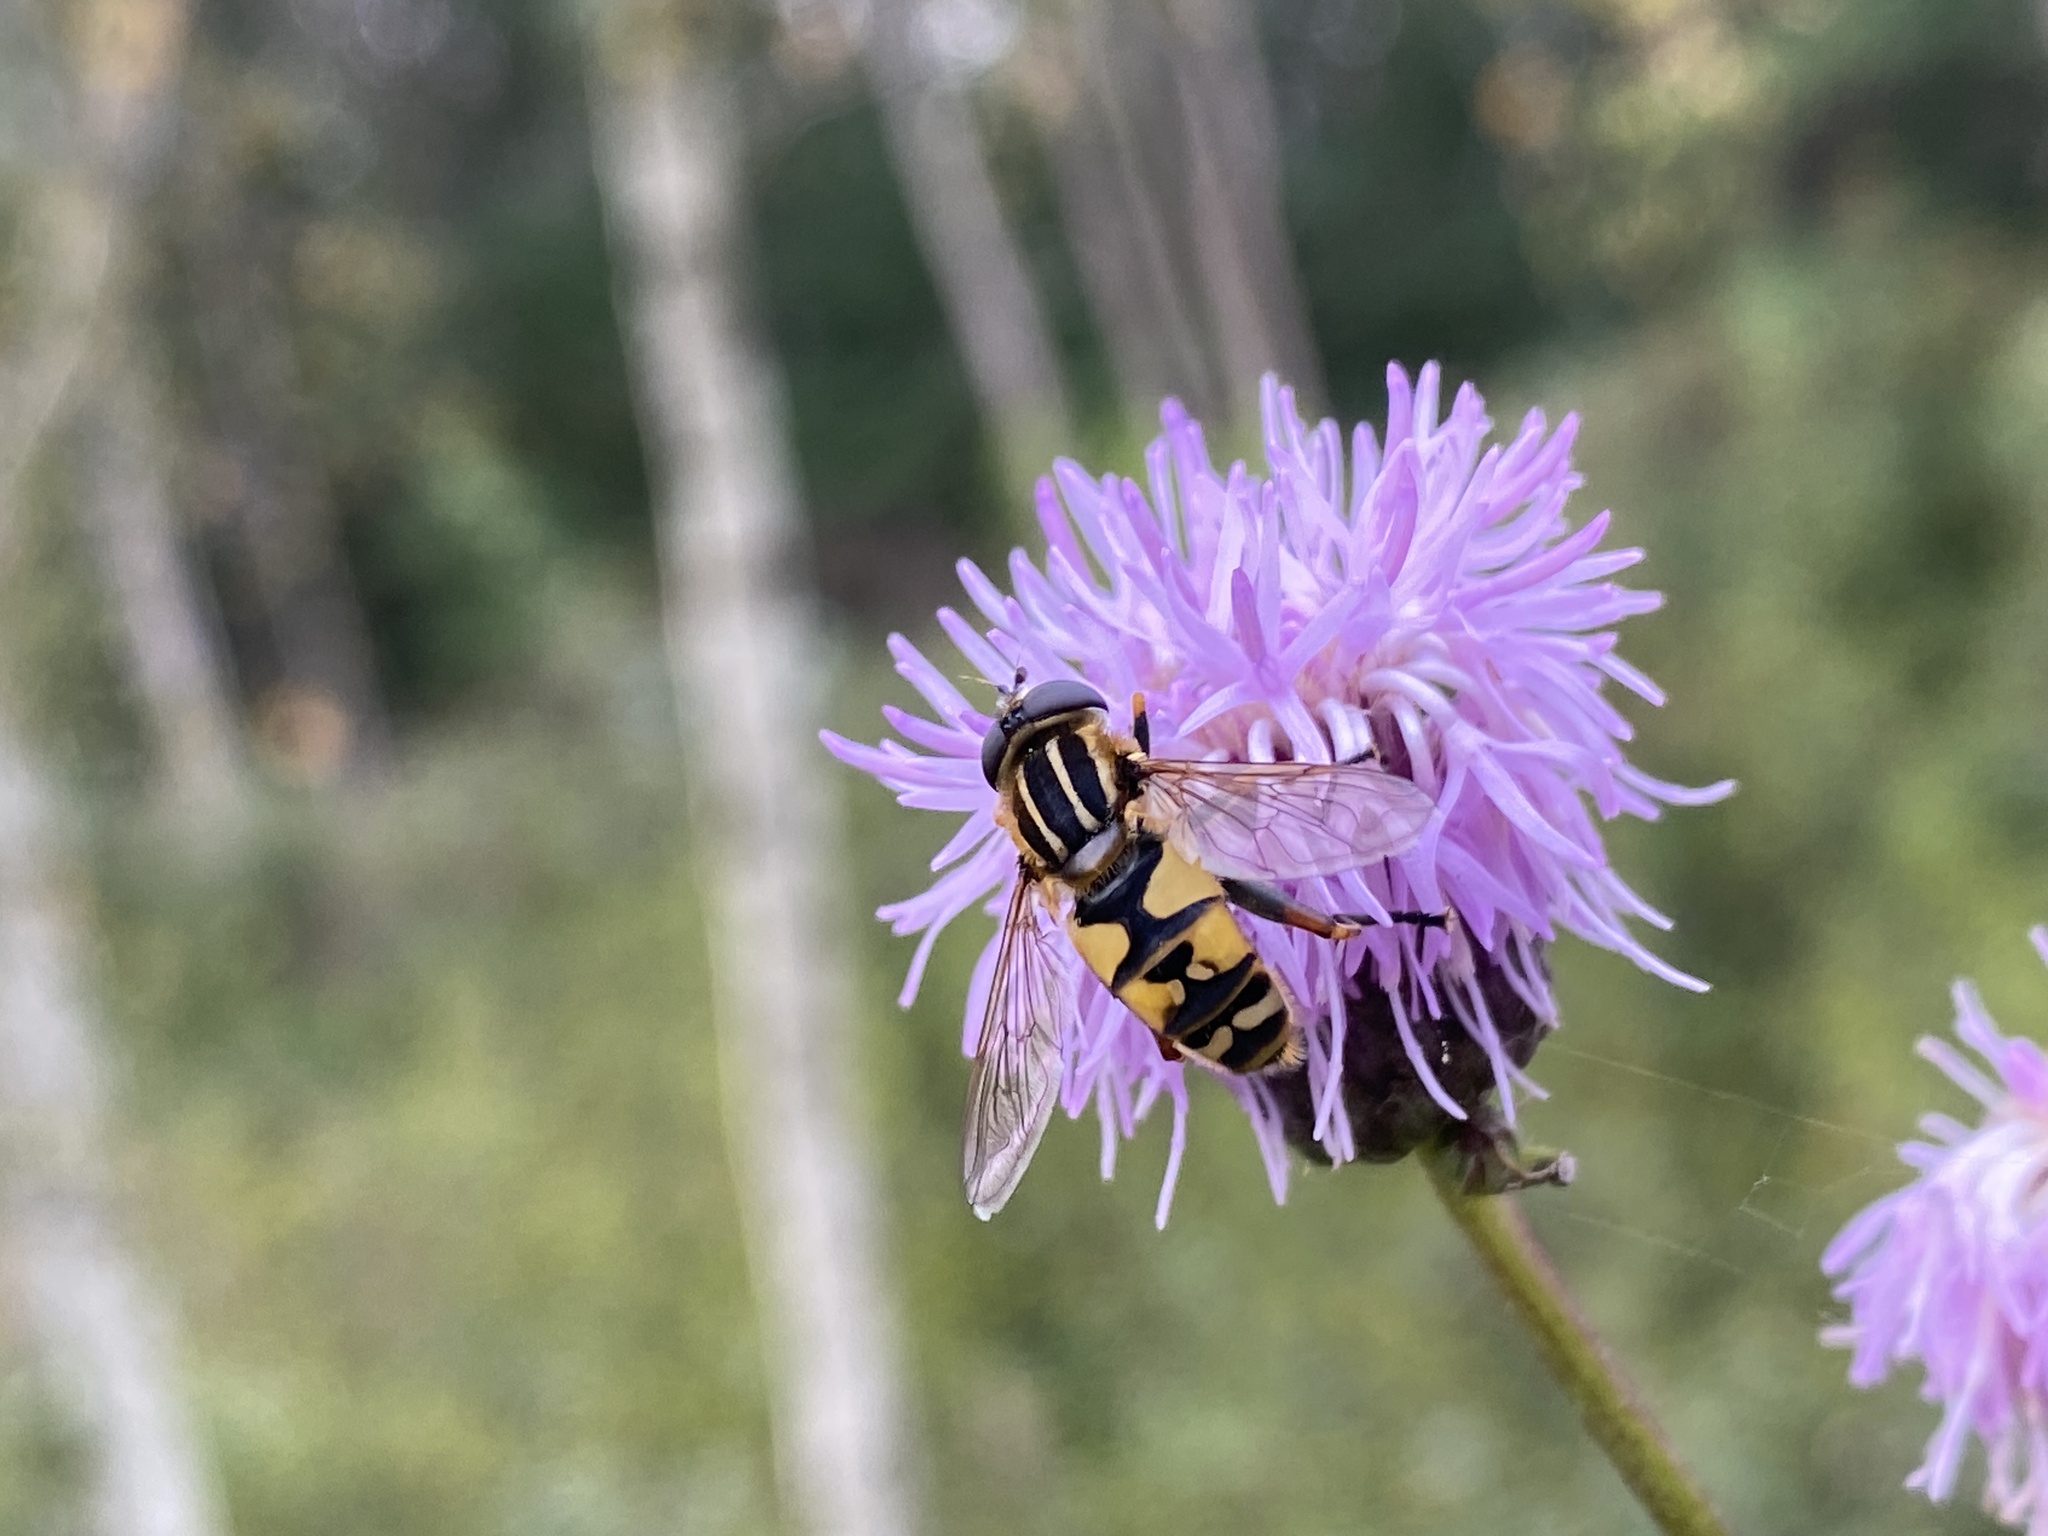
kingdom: Animalia
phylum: Arthropoda
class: Insecta
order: Diptera
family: Syrphidae
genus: Helophilus
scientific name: Helophilus pendulus
